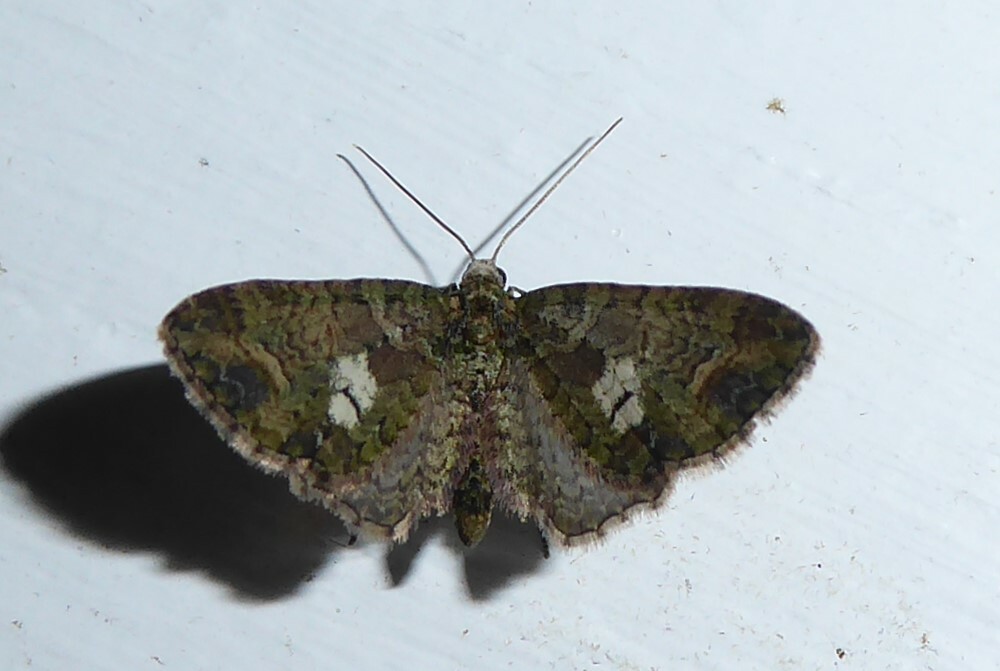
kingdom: Animalia
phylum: Arthropoda
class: Insecta
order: Lepidoptera
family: Geometridae
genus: Idaea
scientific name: Idaea mutanda
